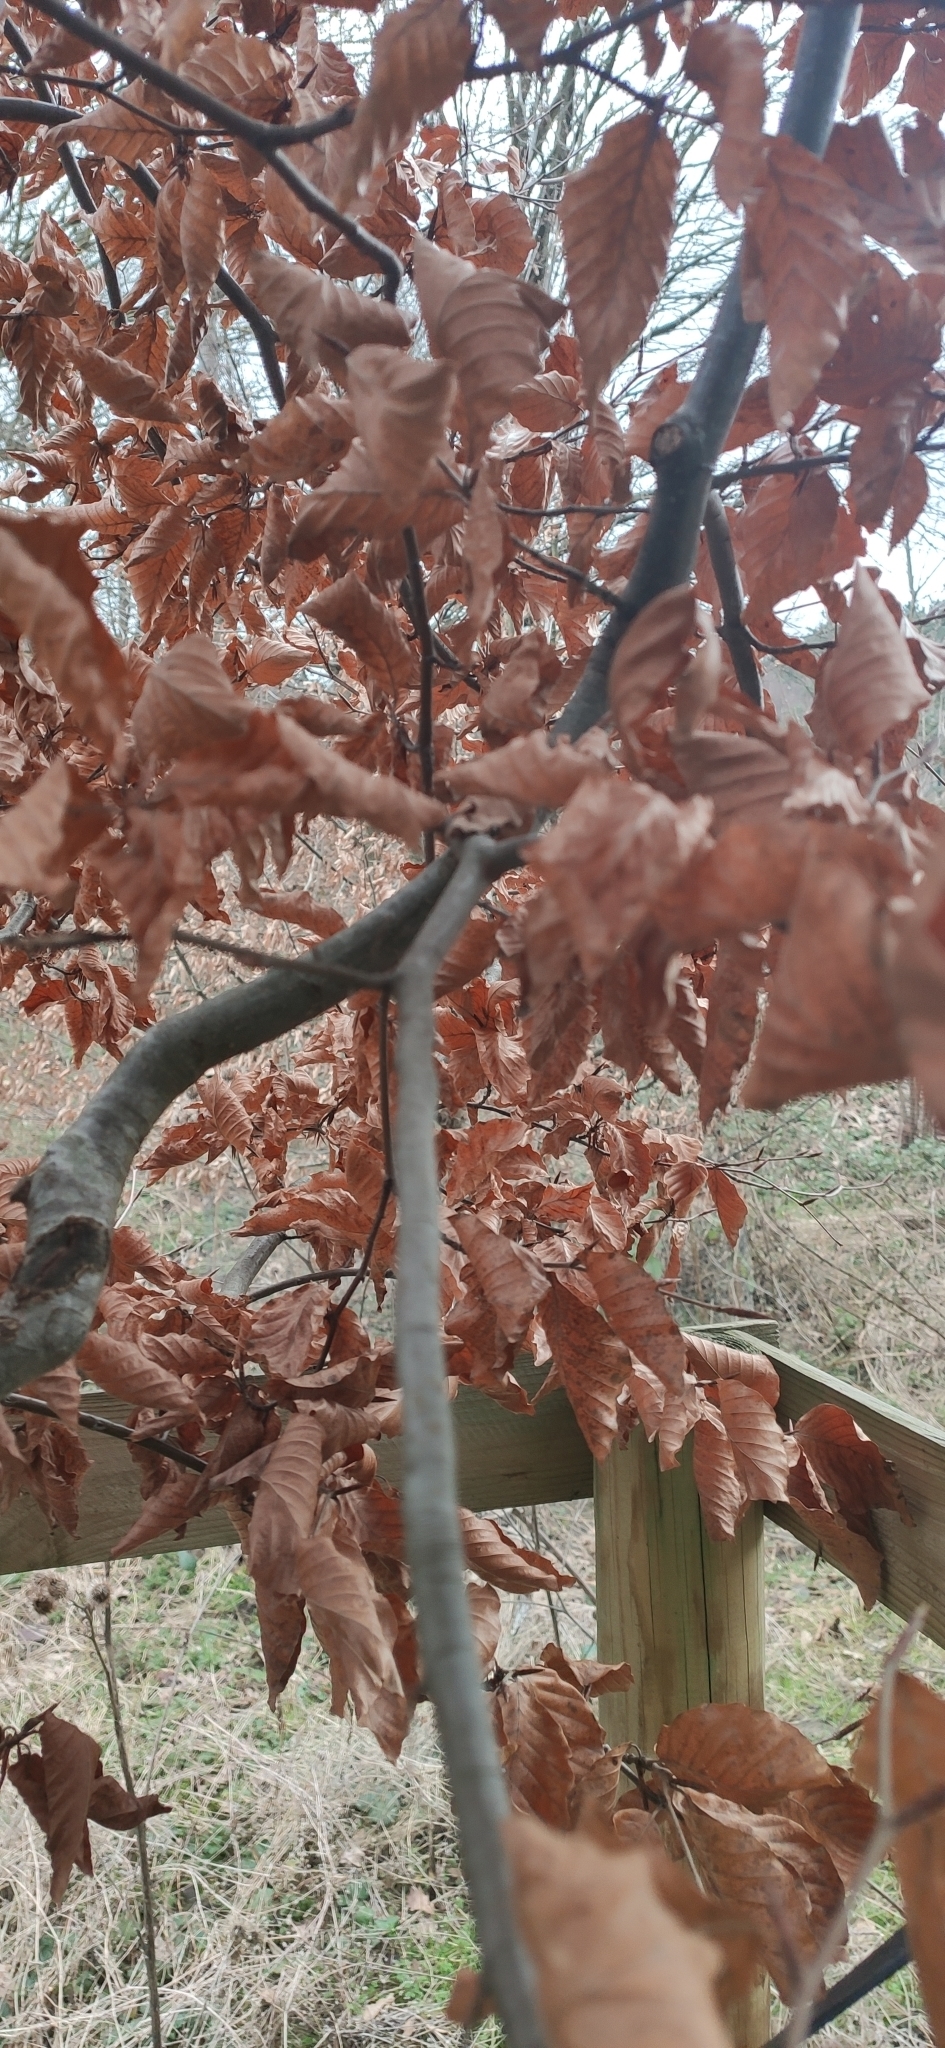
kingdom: Plantae
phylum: Tracheophyta
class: Magnoliopsida
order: Fagales
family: Fagaceae
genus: Fagus
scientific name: Fagus sylvatica
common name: Beech
